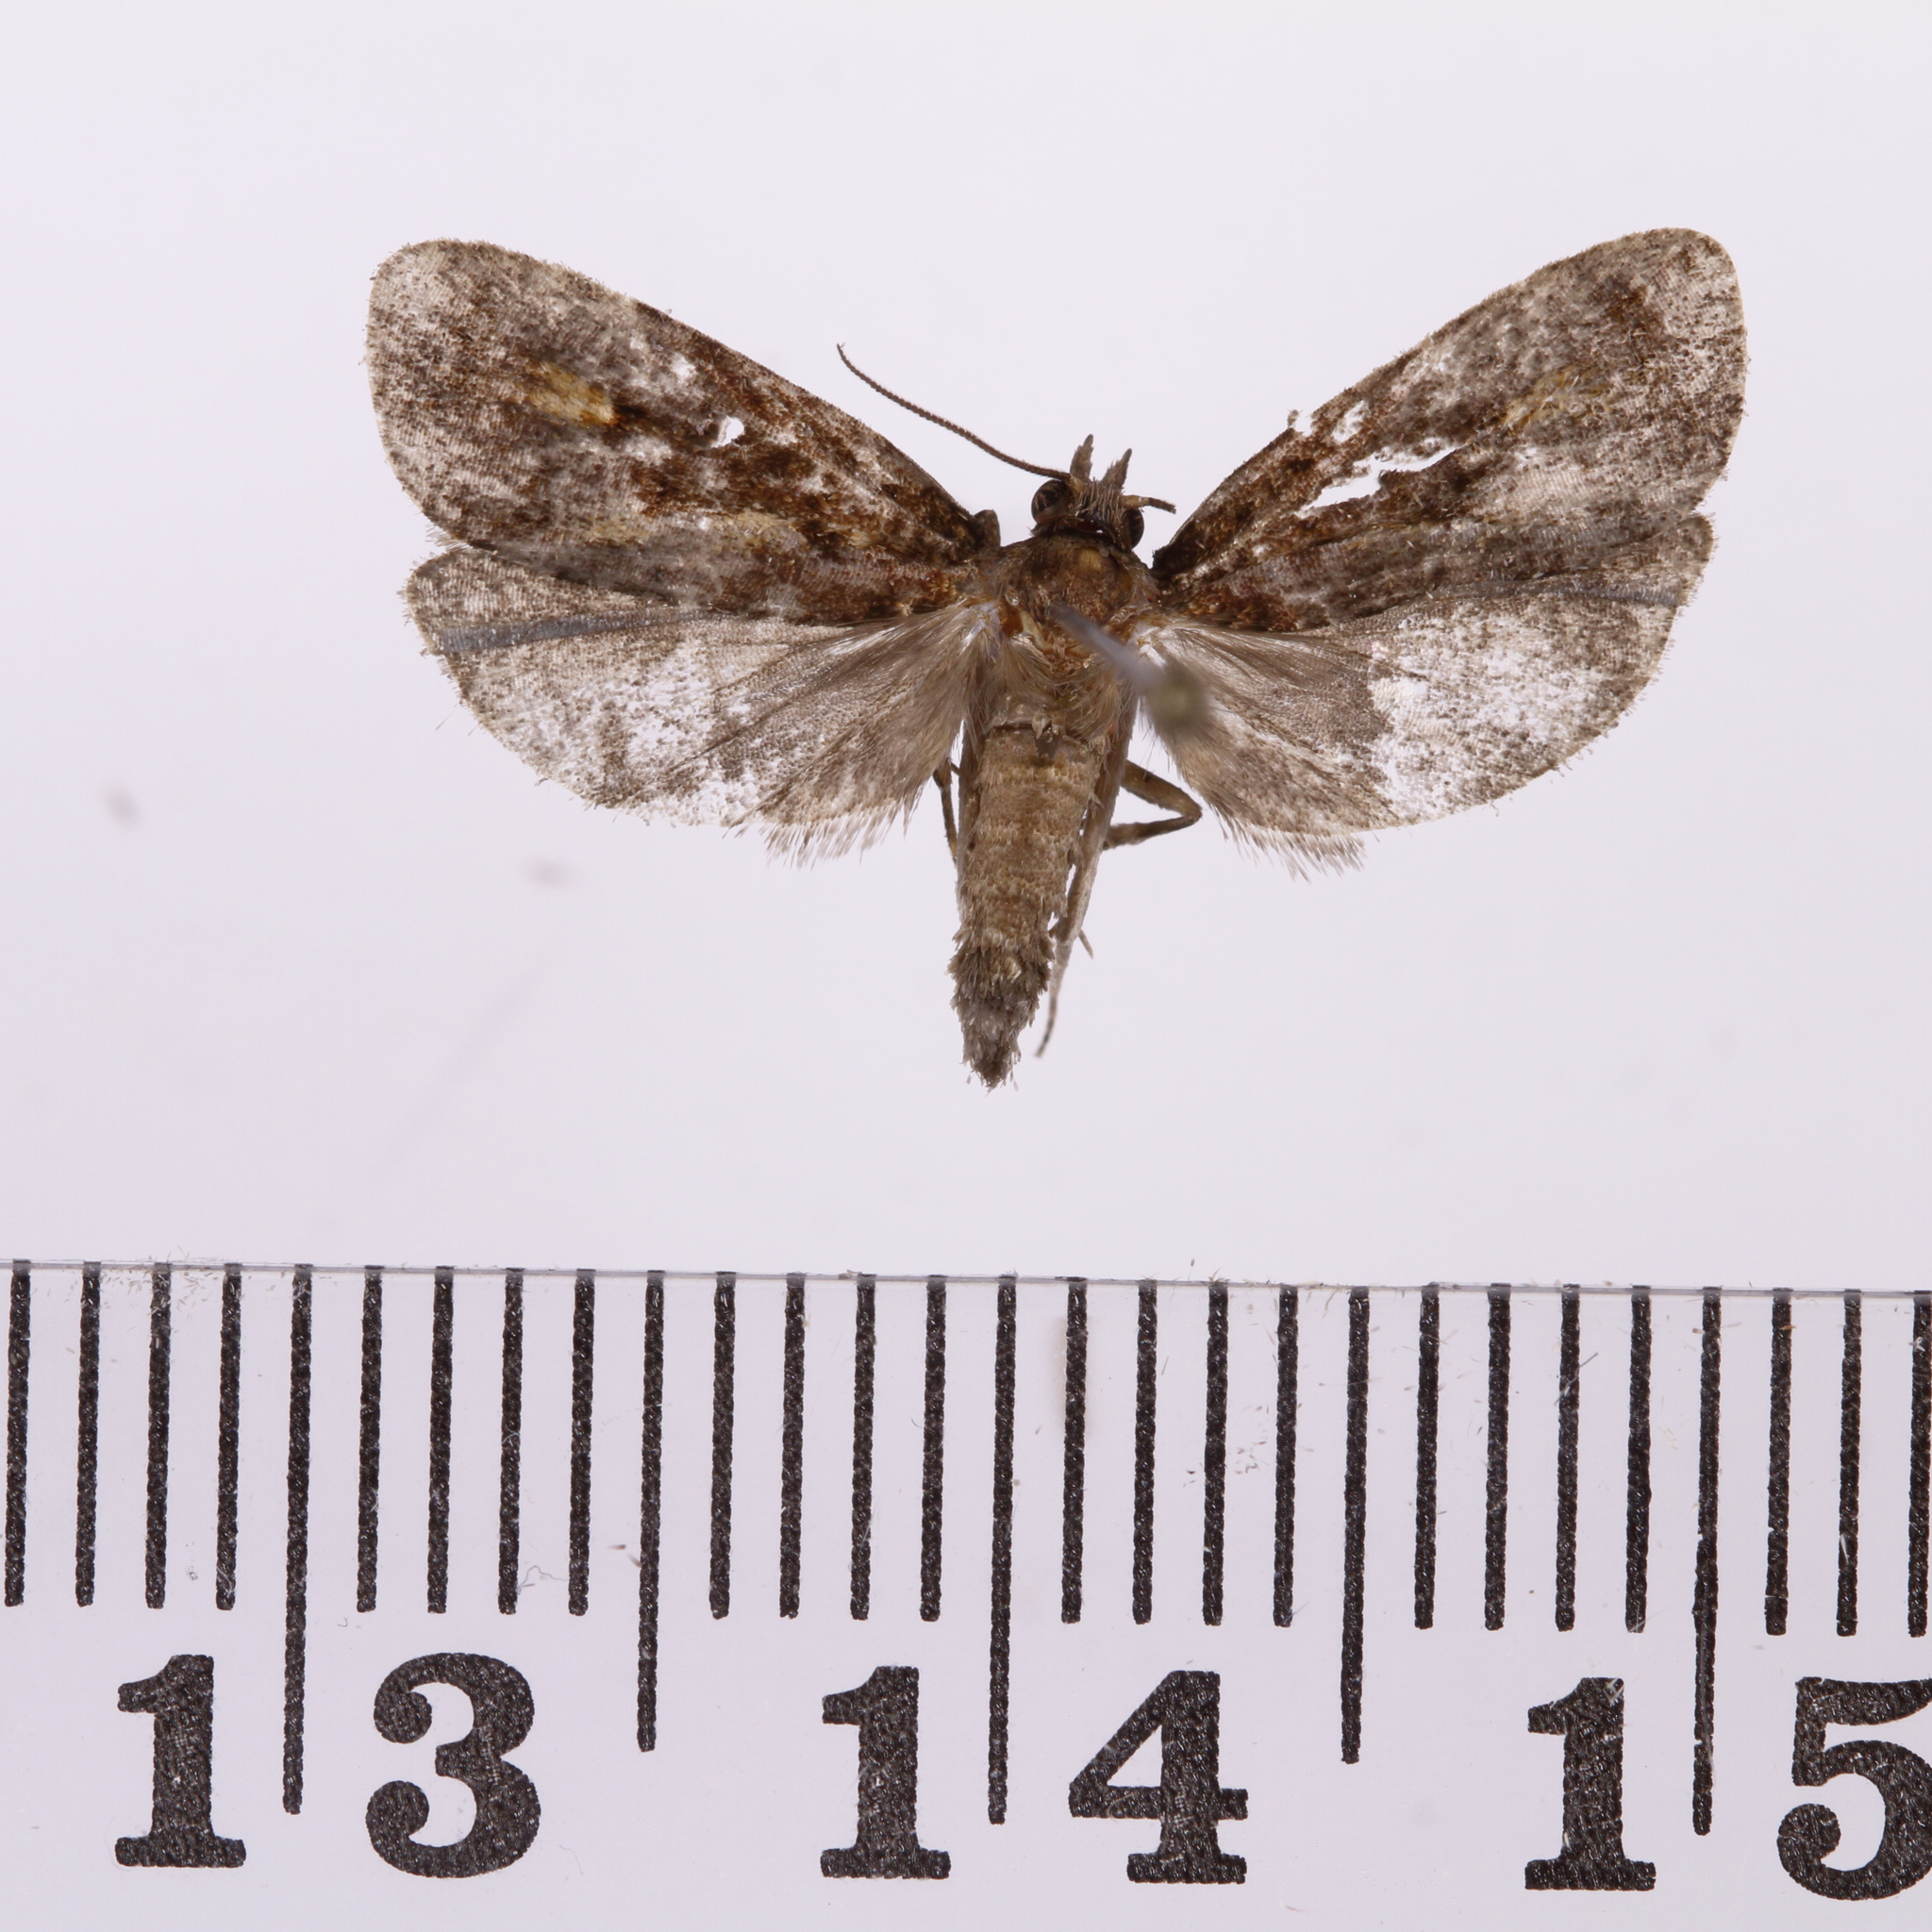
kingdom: Animalia
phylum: Arthropoda
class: Insecta
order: Lepidoptera
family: Tortricidae
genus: Cryptaspasma
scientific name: Cryptaspasma querula
